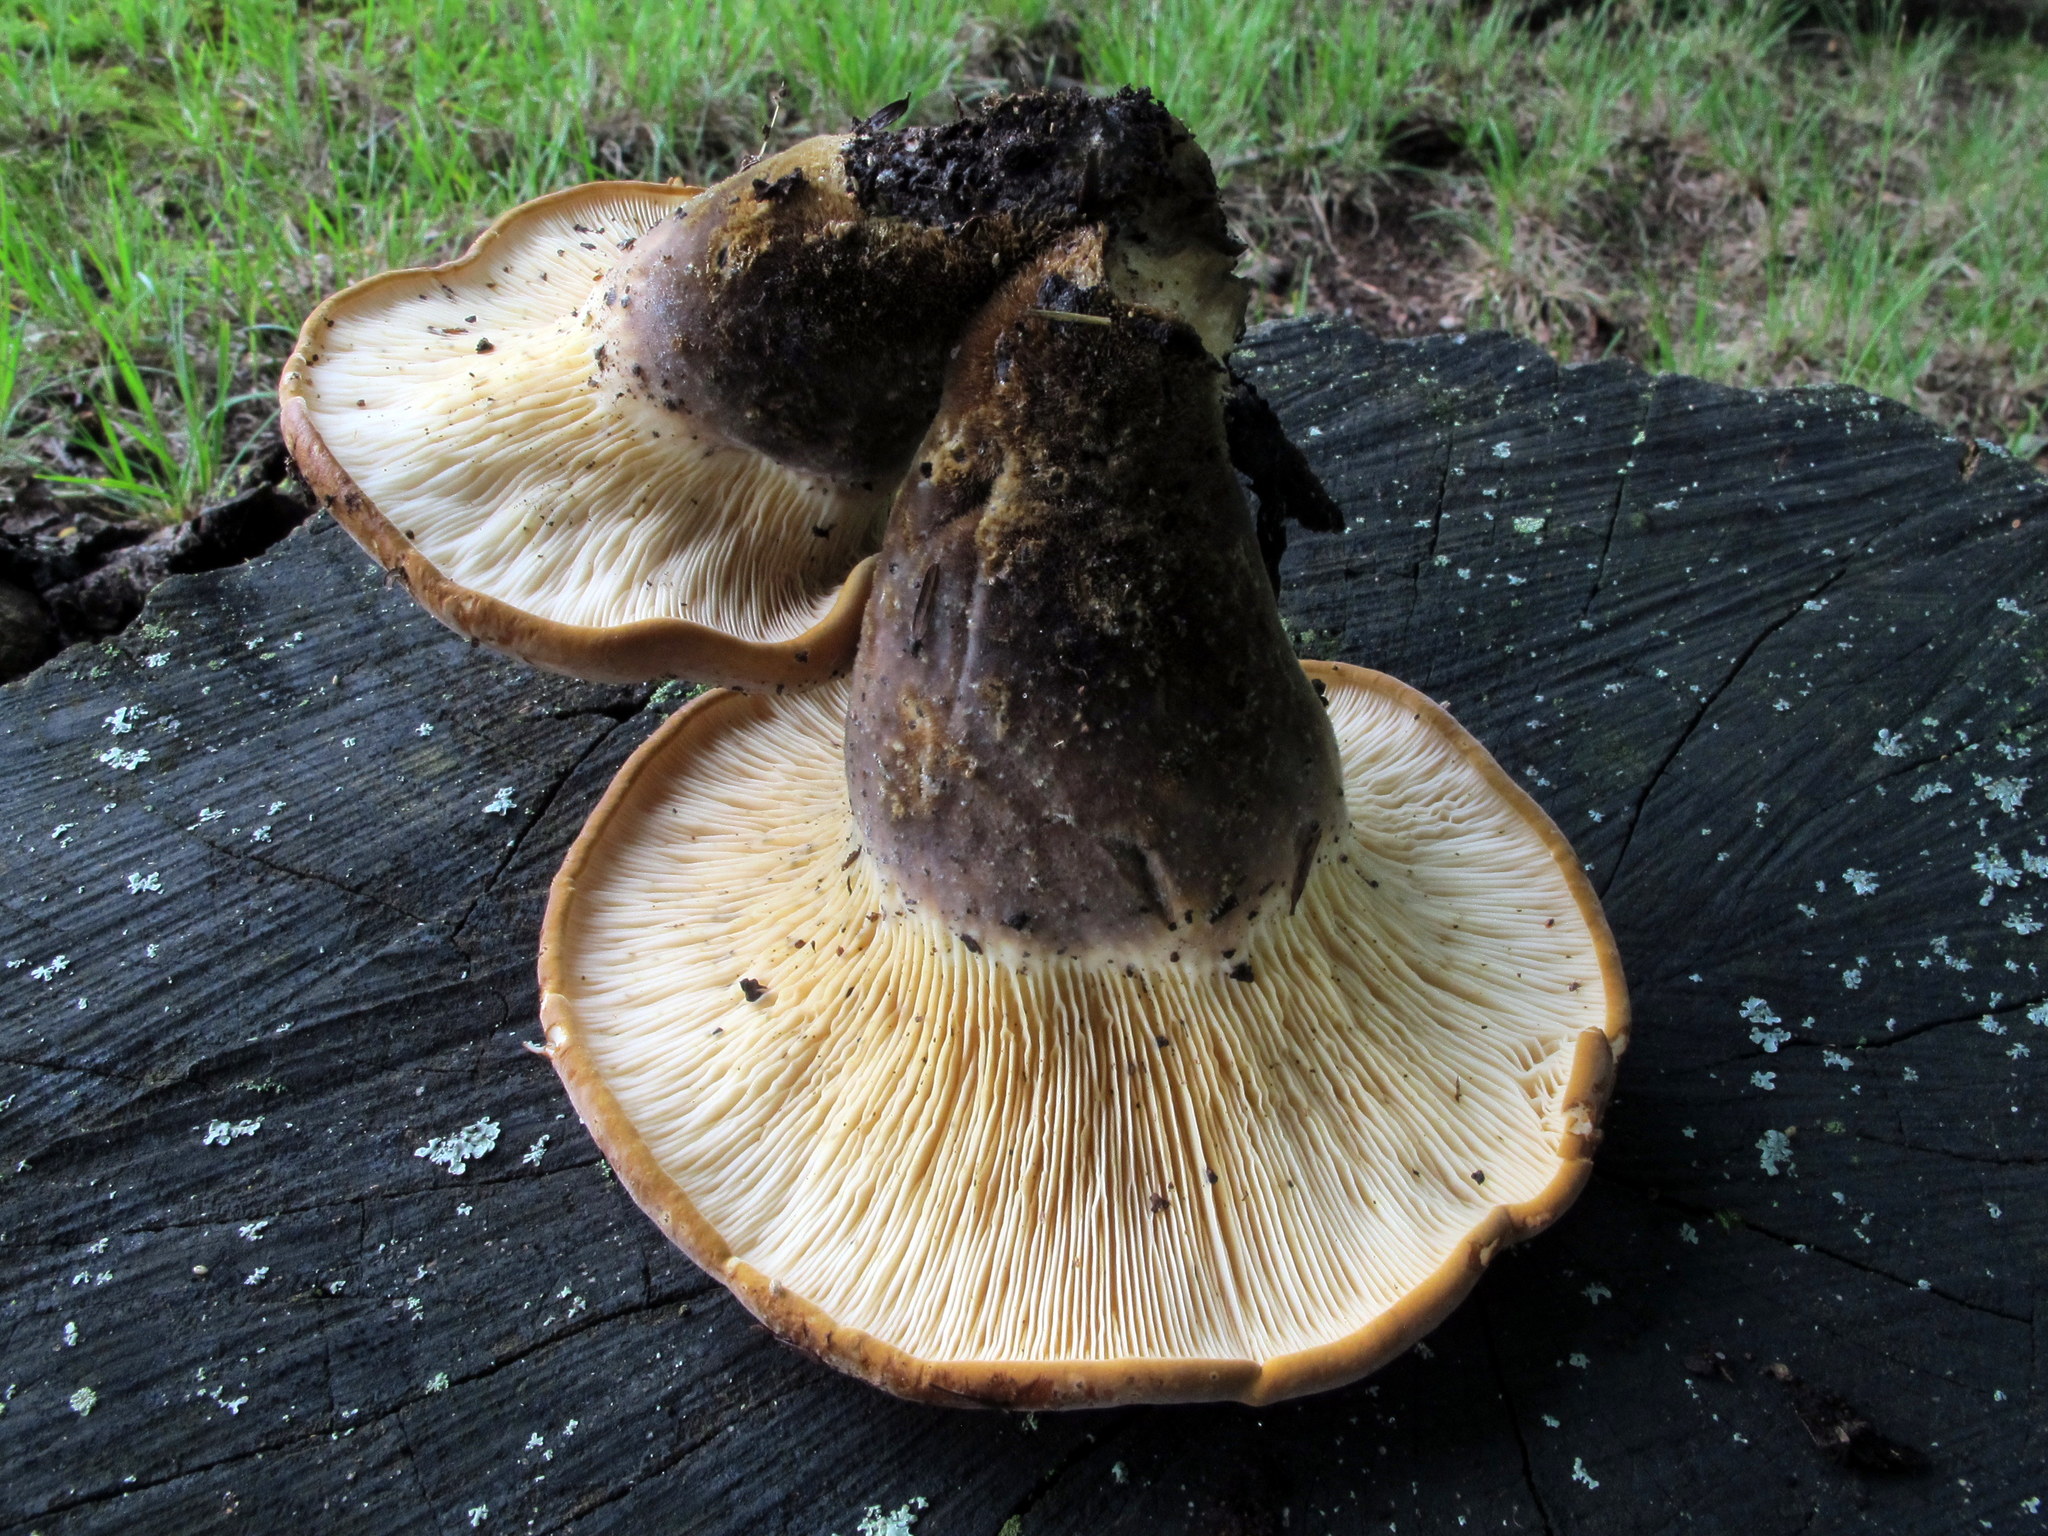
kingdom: Fungi
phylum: Basidiomycota
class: Agaricomycetes
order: Boletales
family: Tapinellaceae
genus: Tapinella
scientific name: Tapinella atrotomentosa
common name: Velvet rollrim
